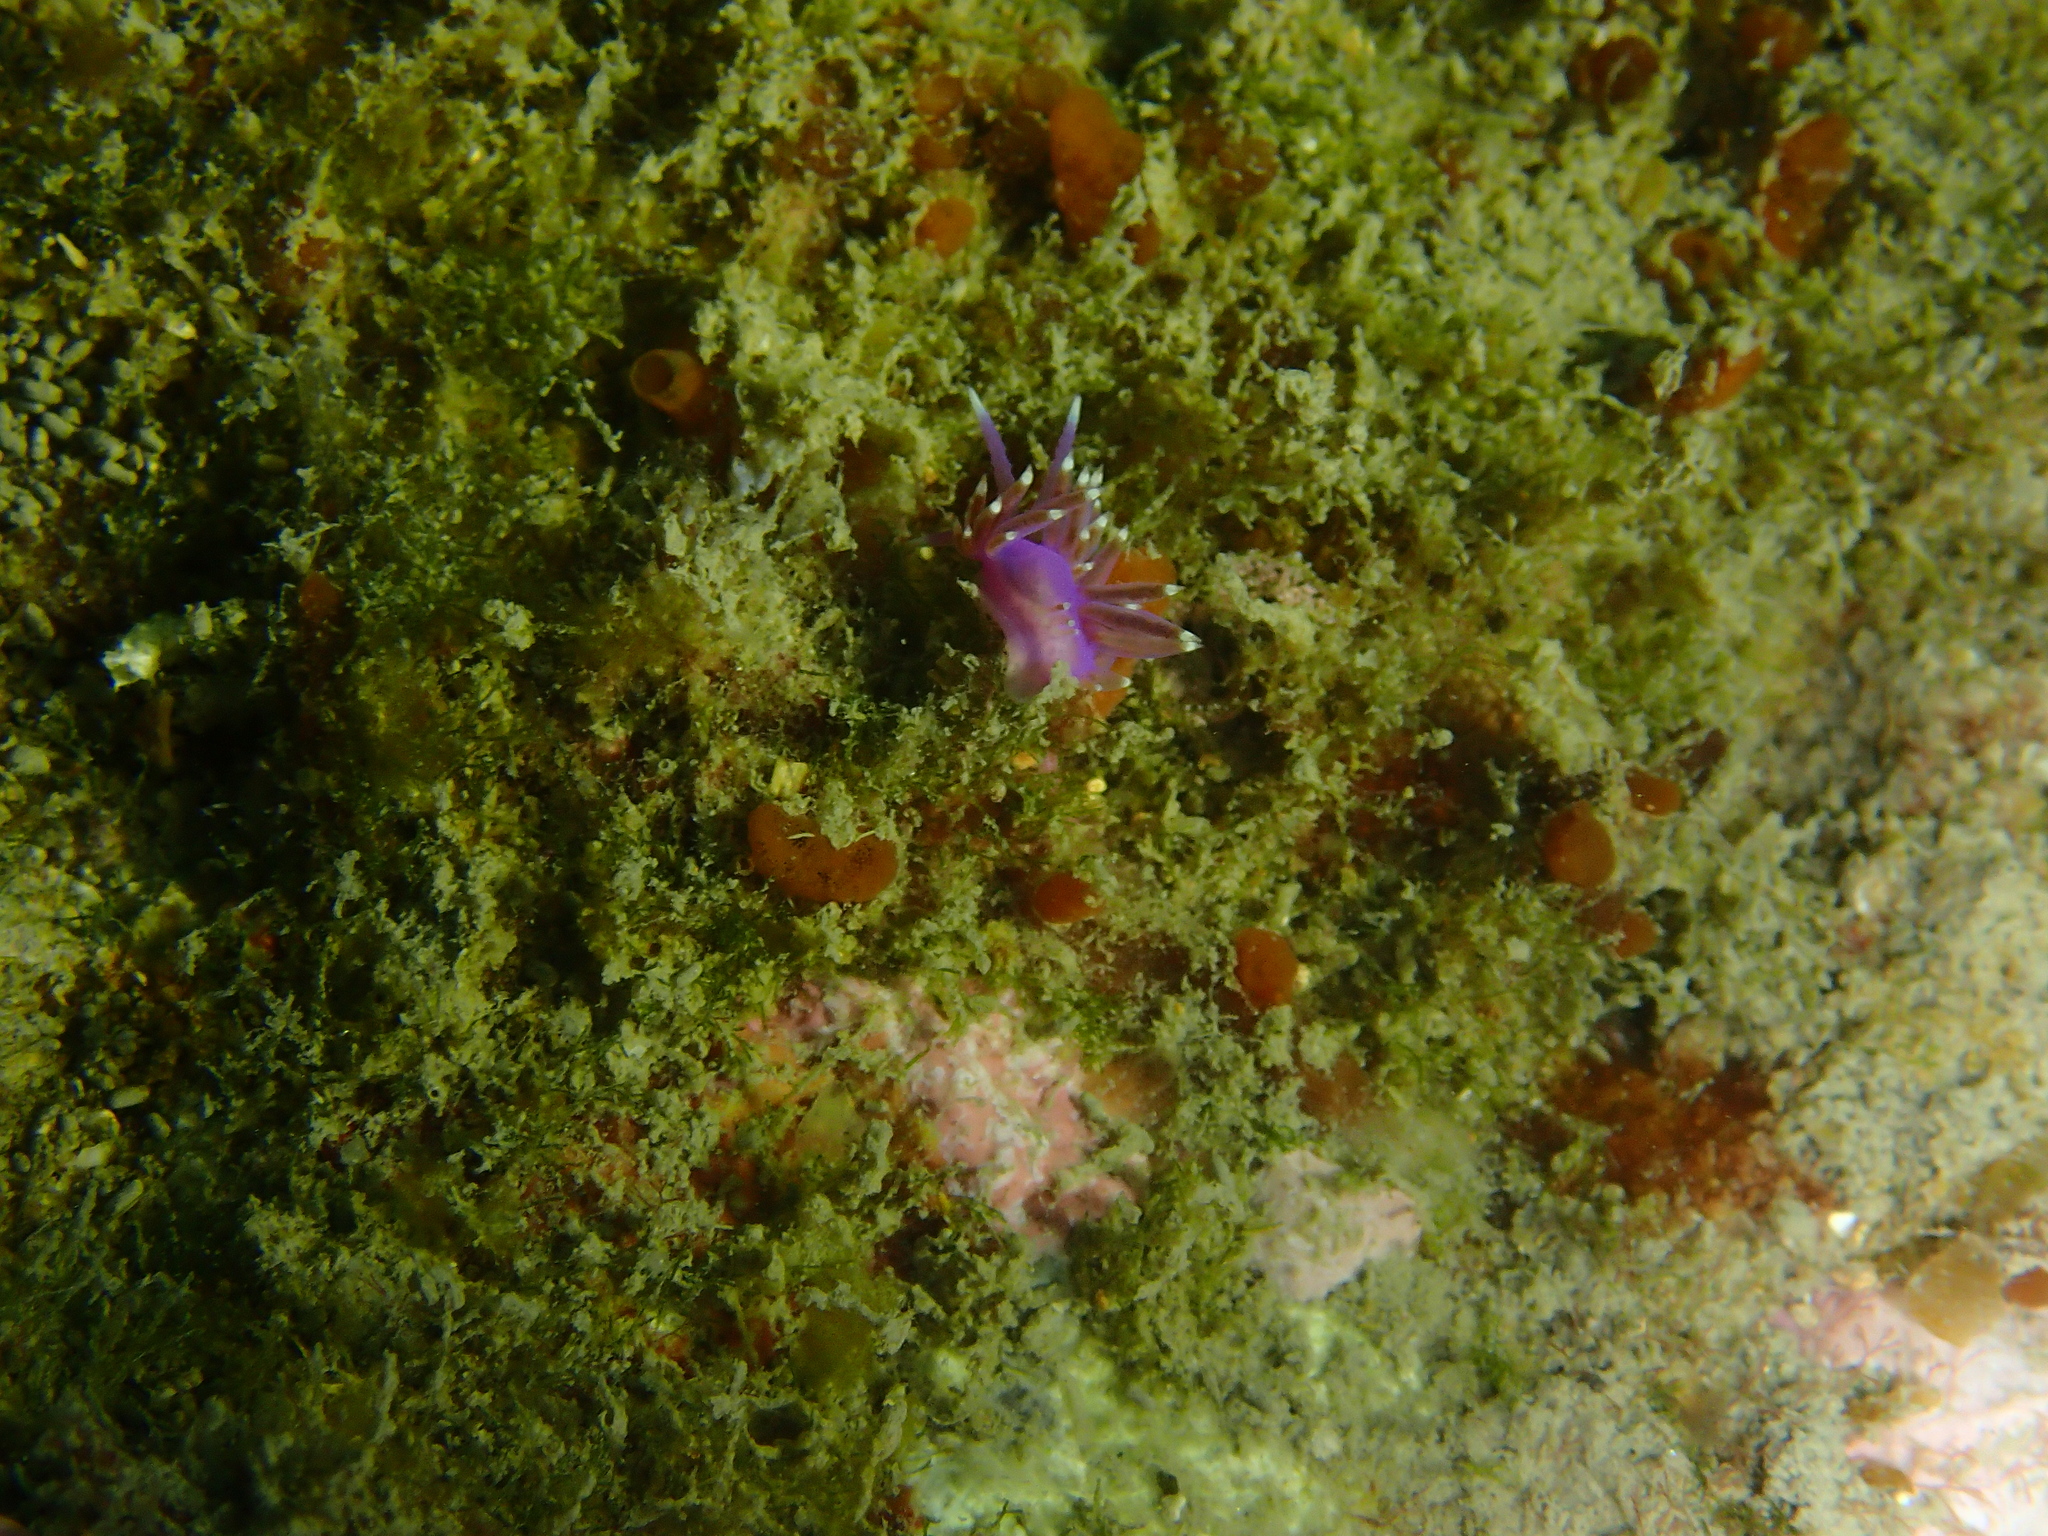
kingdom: Animalia
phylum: Mollusca
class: Gastropoda
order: Nudibranchia
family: Flabellinidae
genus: Edmundsella
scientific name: Edmundsella pedata
